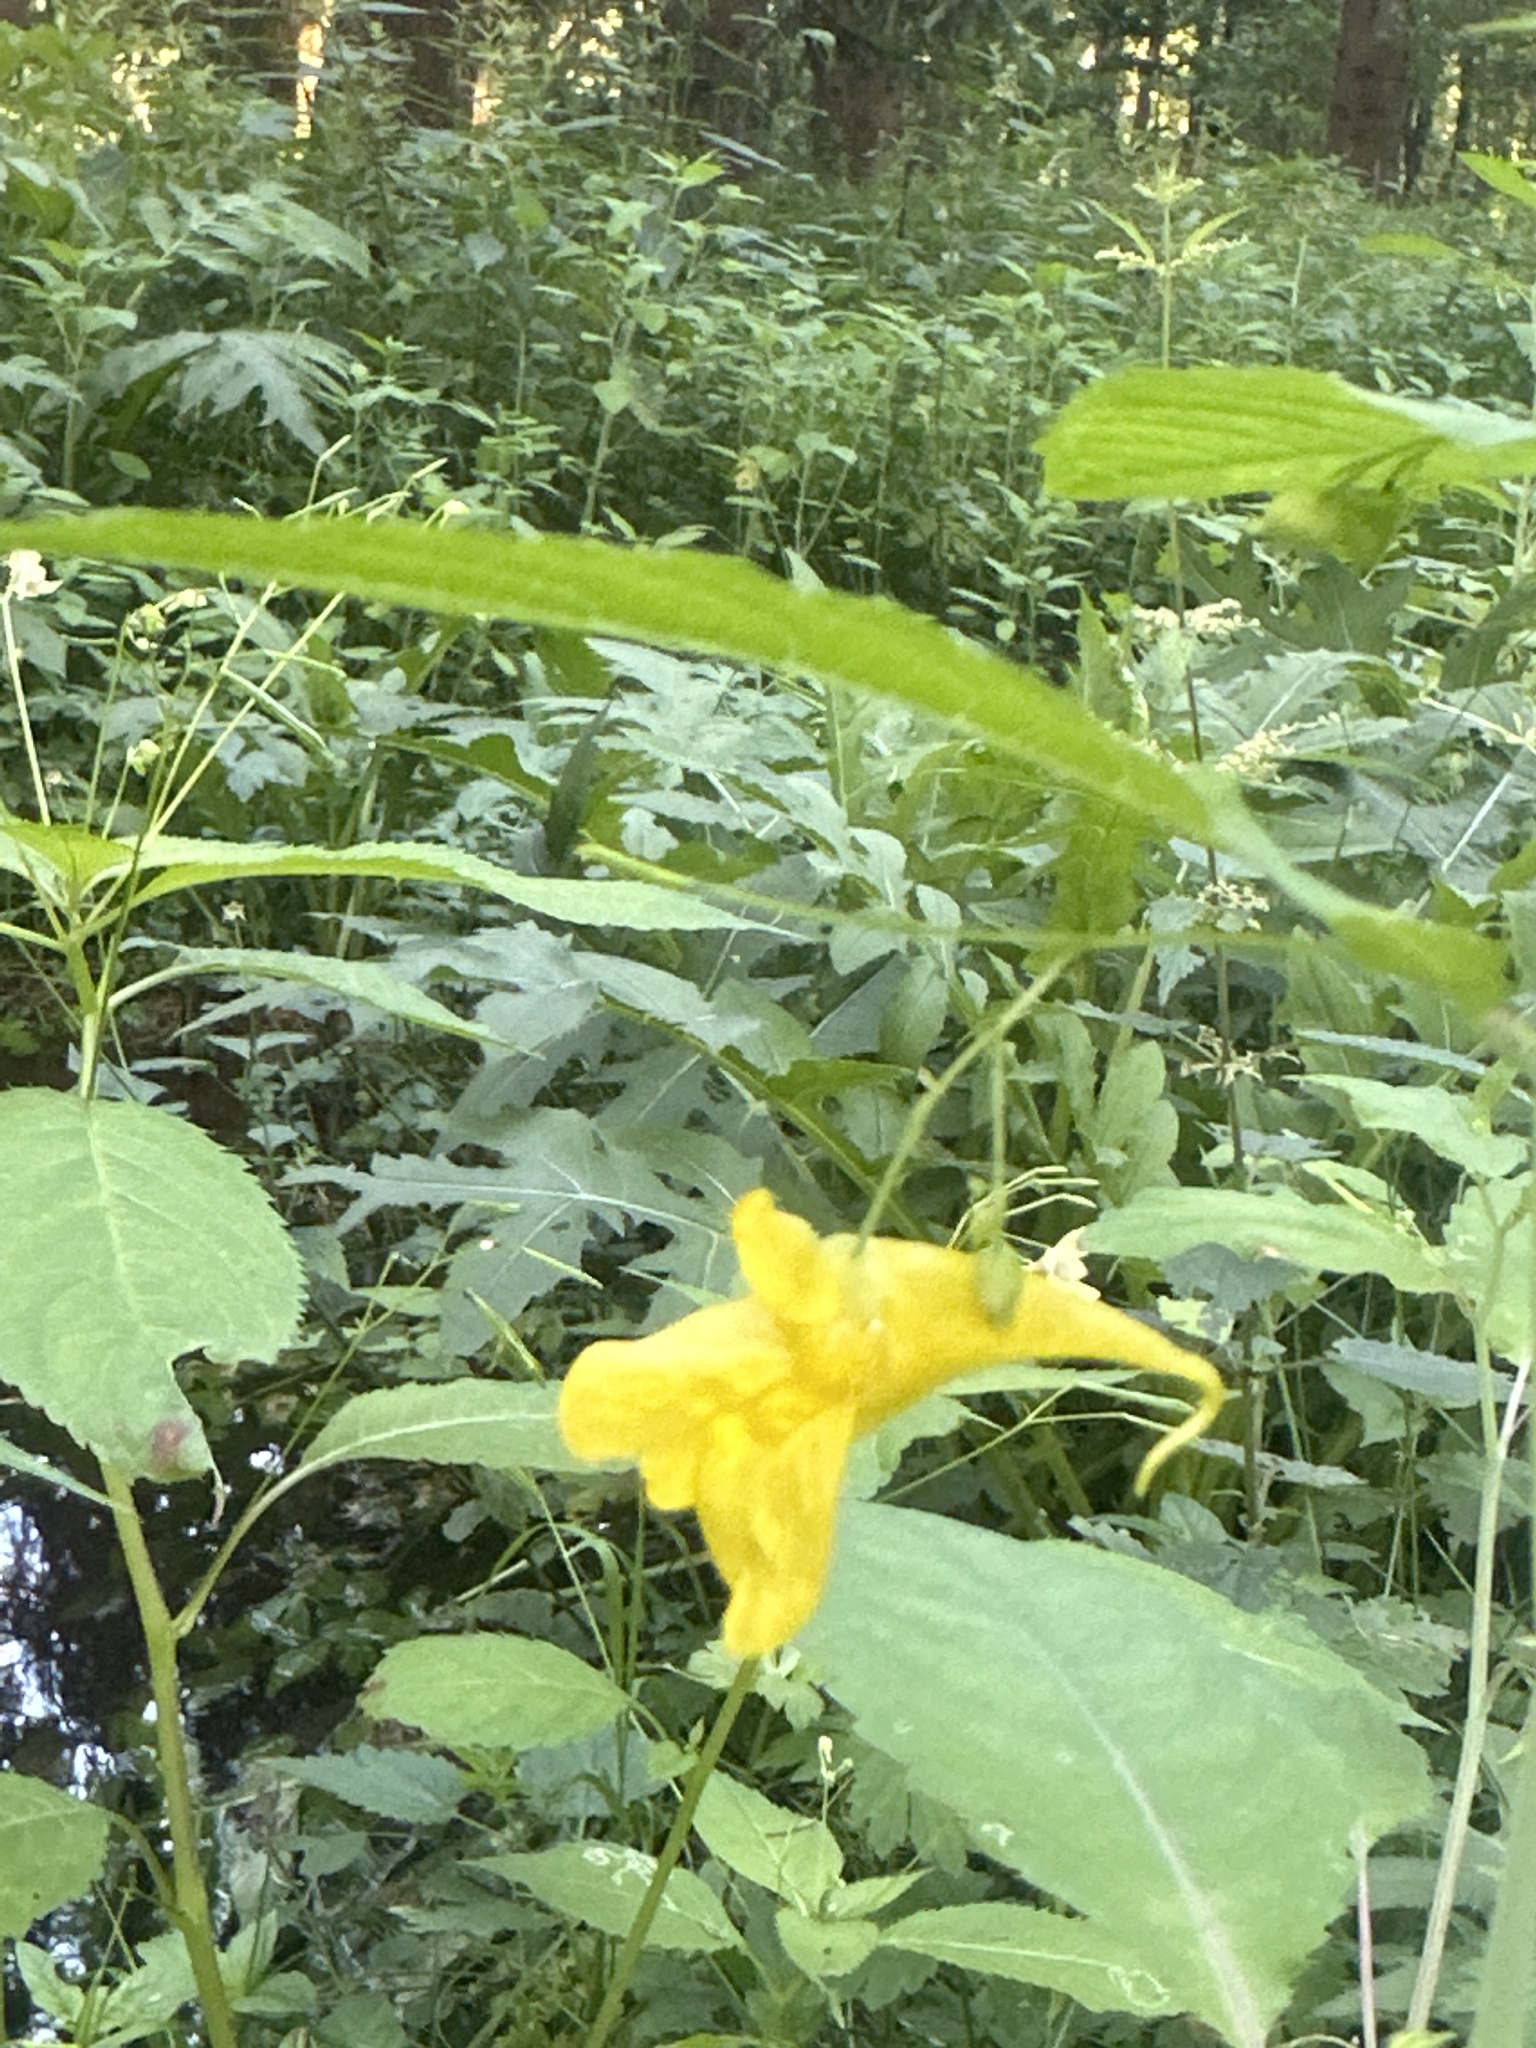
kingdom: Plantae
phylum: Tracheophyta
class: Magnoliopsida
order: Ericales
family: Balsaminaceae
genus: Impatiens
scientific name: Impatiens noli-tangere
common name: Touch-me-not balsam
